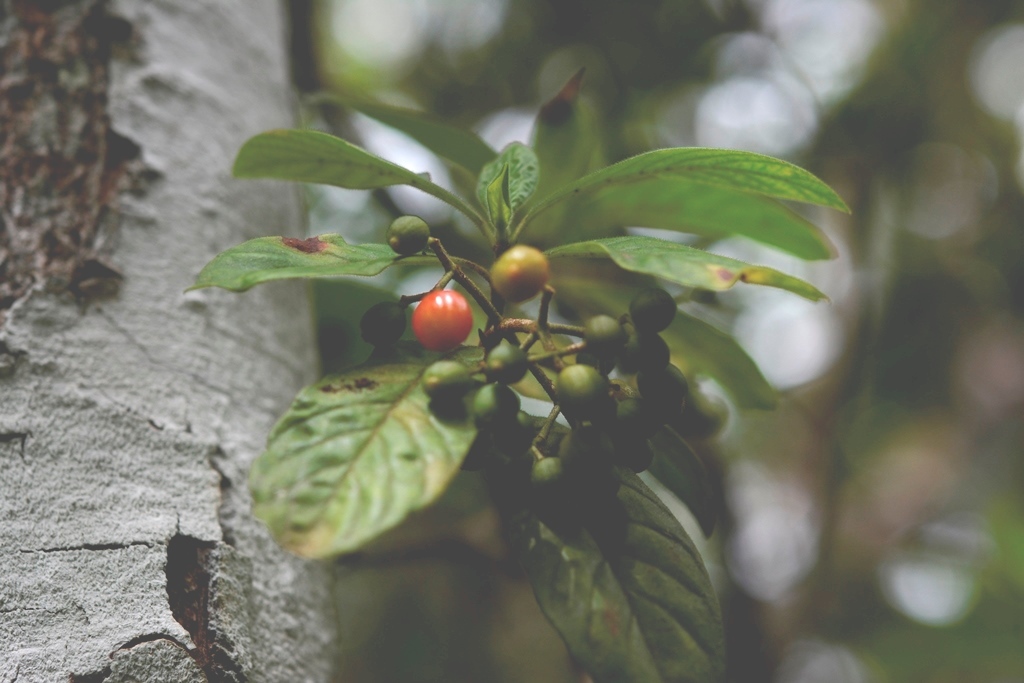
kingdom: Plantae
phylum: Tracheophyta
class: Magnoliopsida
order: Gentianales
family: Rubiaceae
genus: Psychotria
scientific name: Psychotria erythrocarpa
